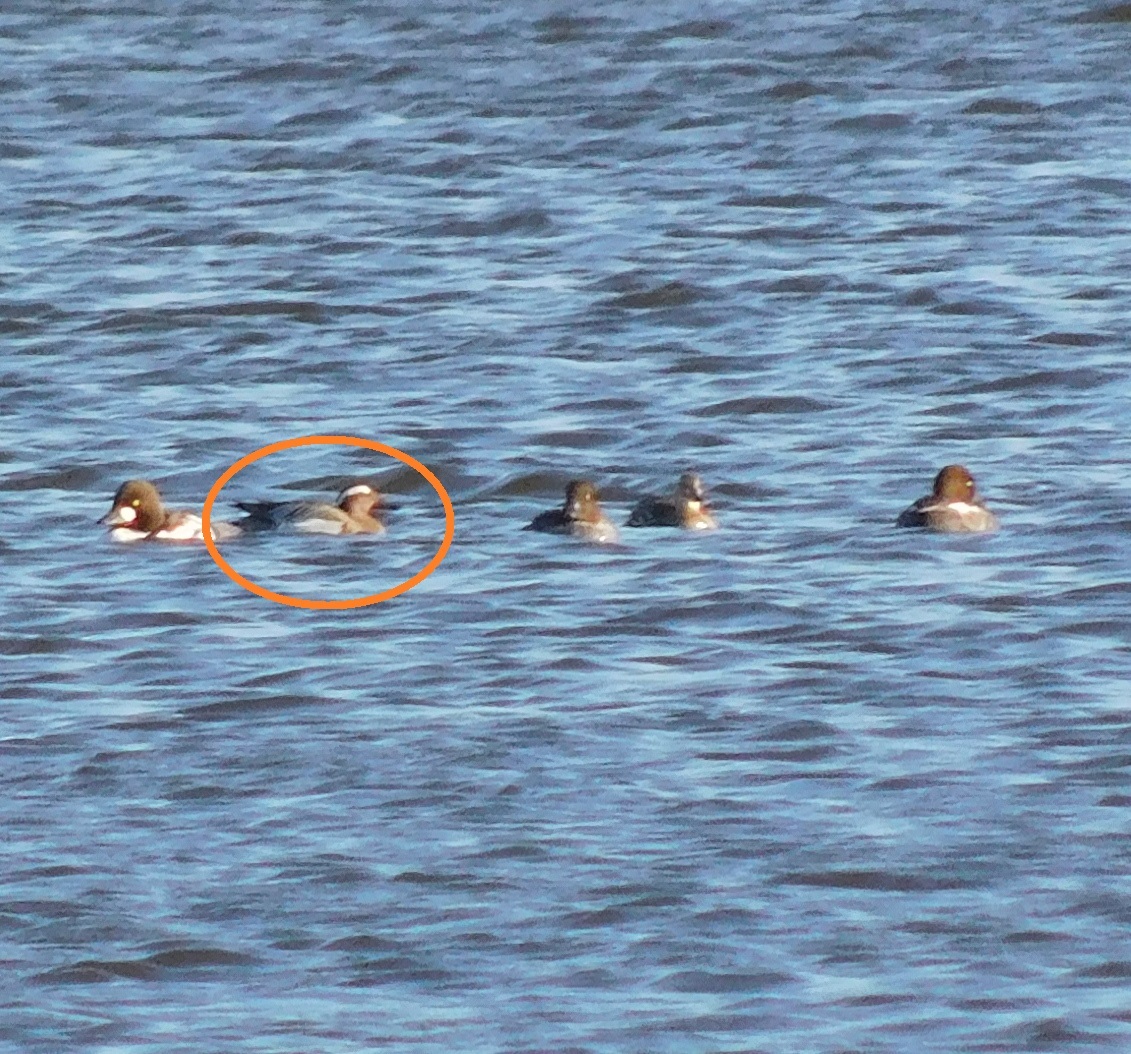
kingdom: Animalia
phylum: Chordata
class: Aves
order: Anseriformes
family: Anatidae
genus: Spatula
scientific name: Spatula querquedula
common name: Garganey
